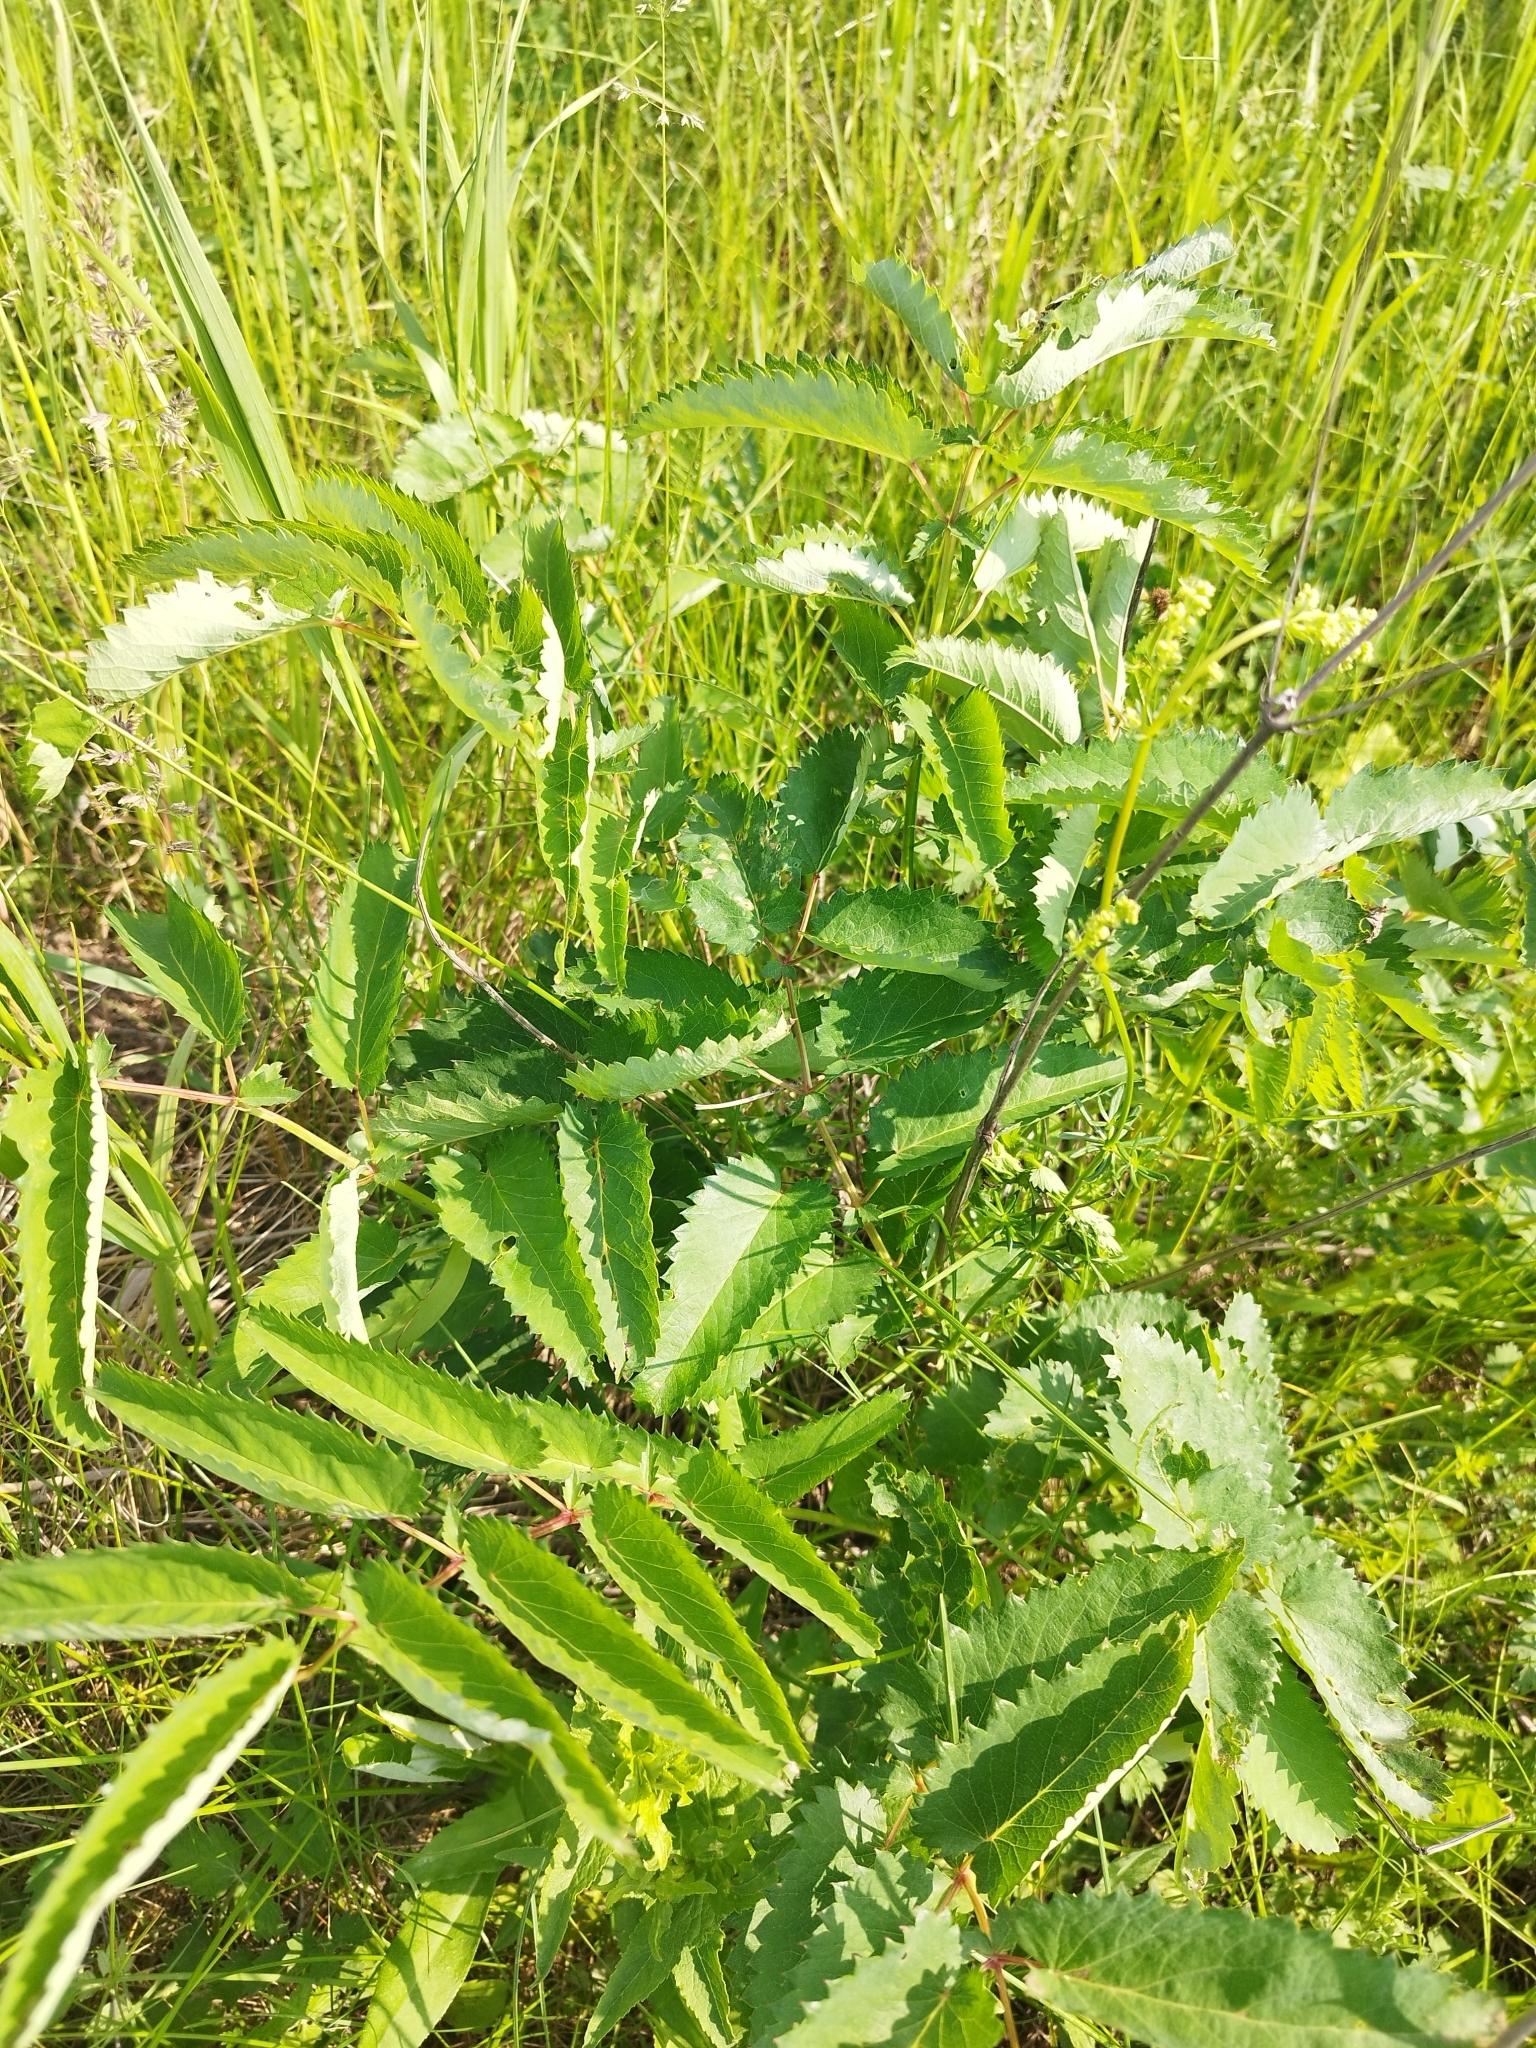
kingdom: Plantae
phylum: Tracheophyta
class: Magnoliopsida
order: Rosales
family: Rosaceae
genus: Sanguisorba
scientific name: Sanguisorba officinalis
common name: Great burnet
